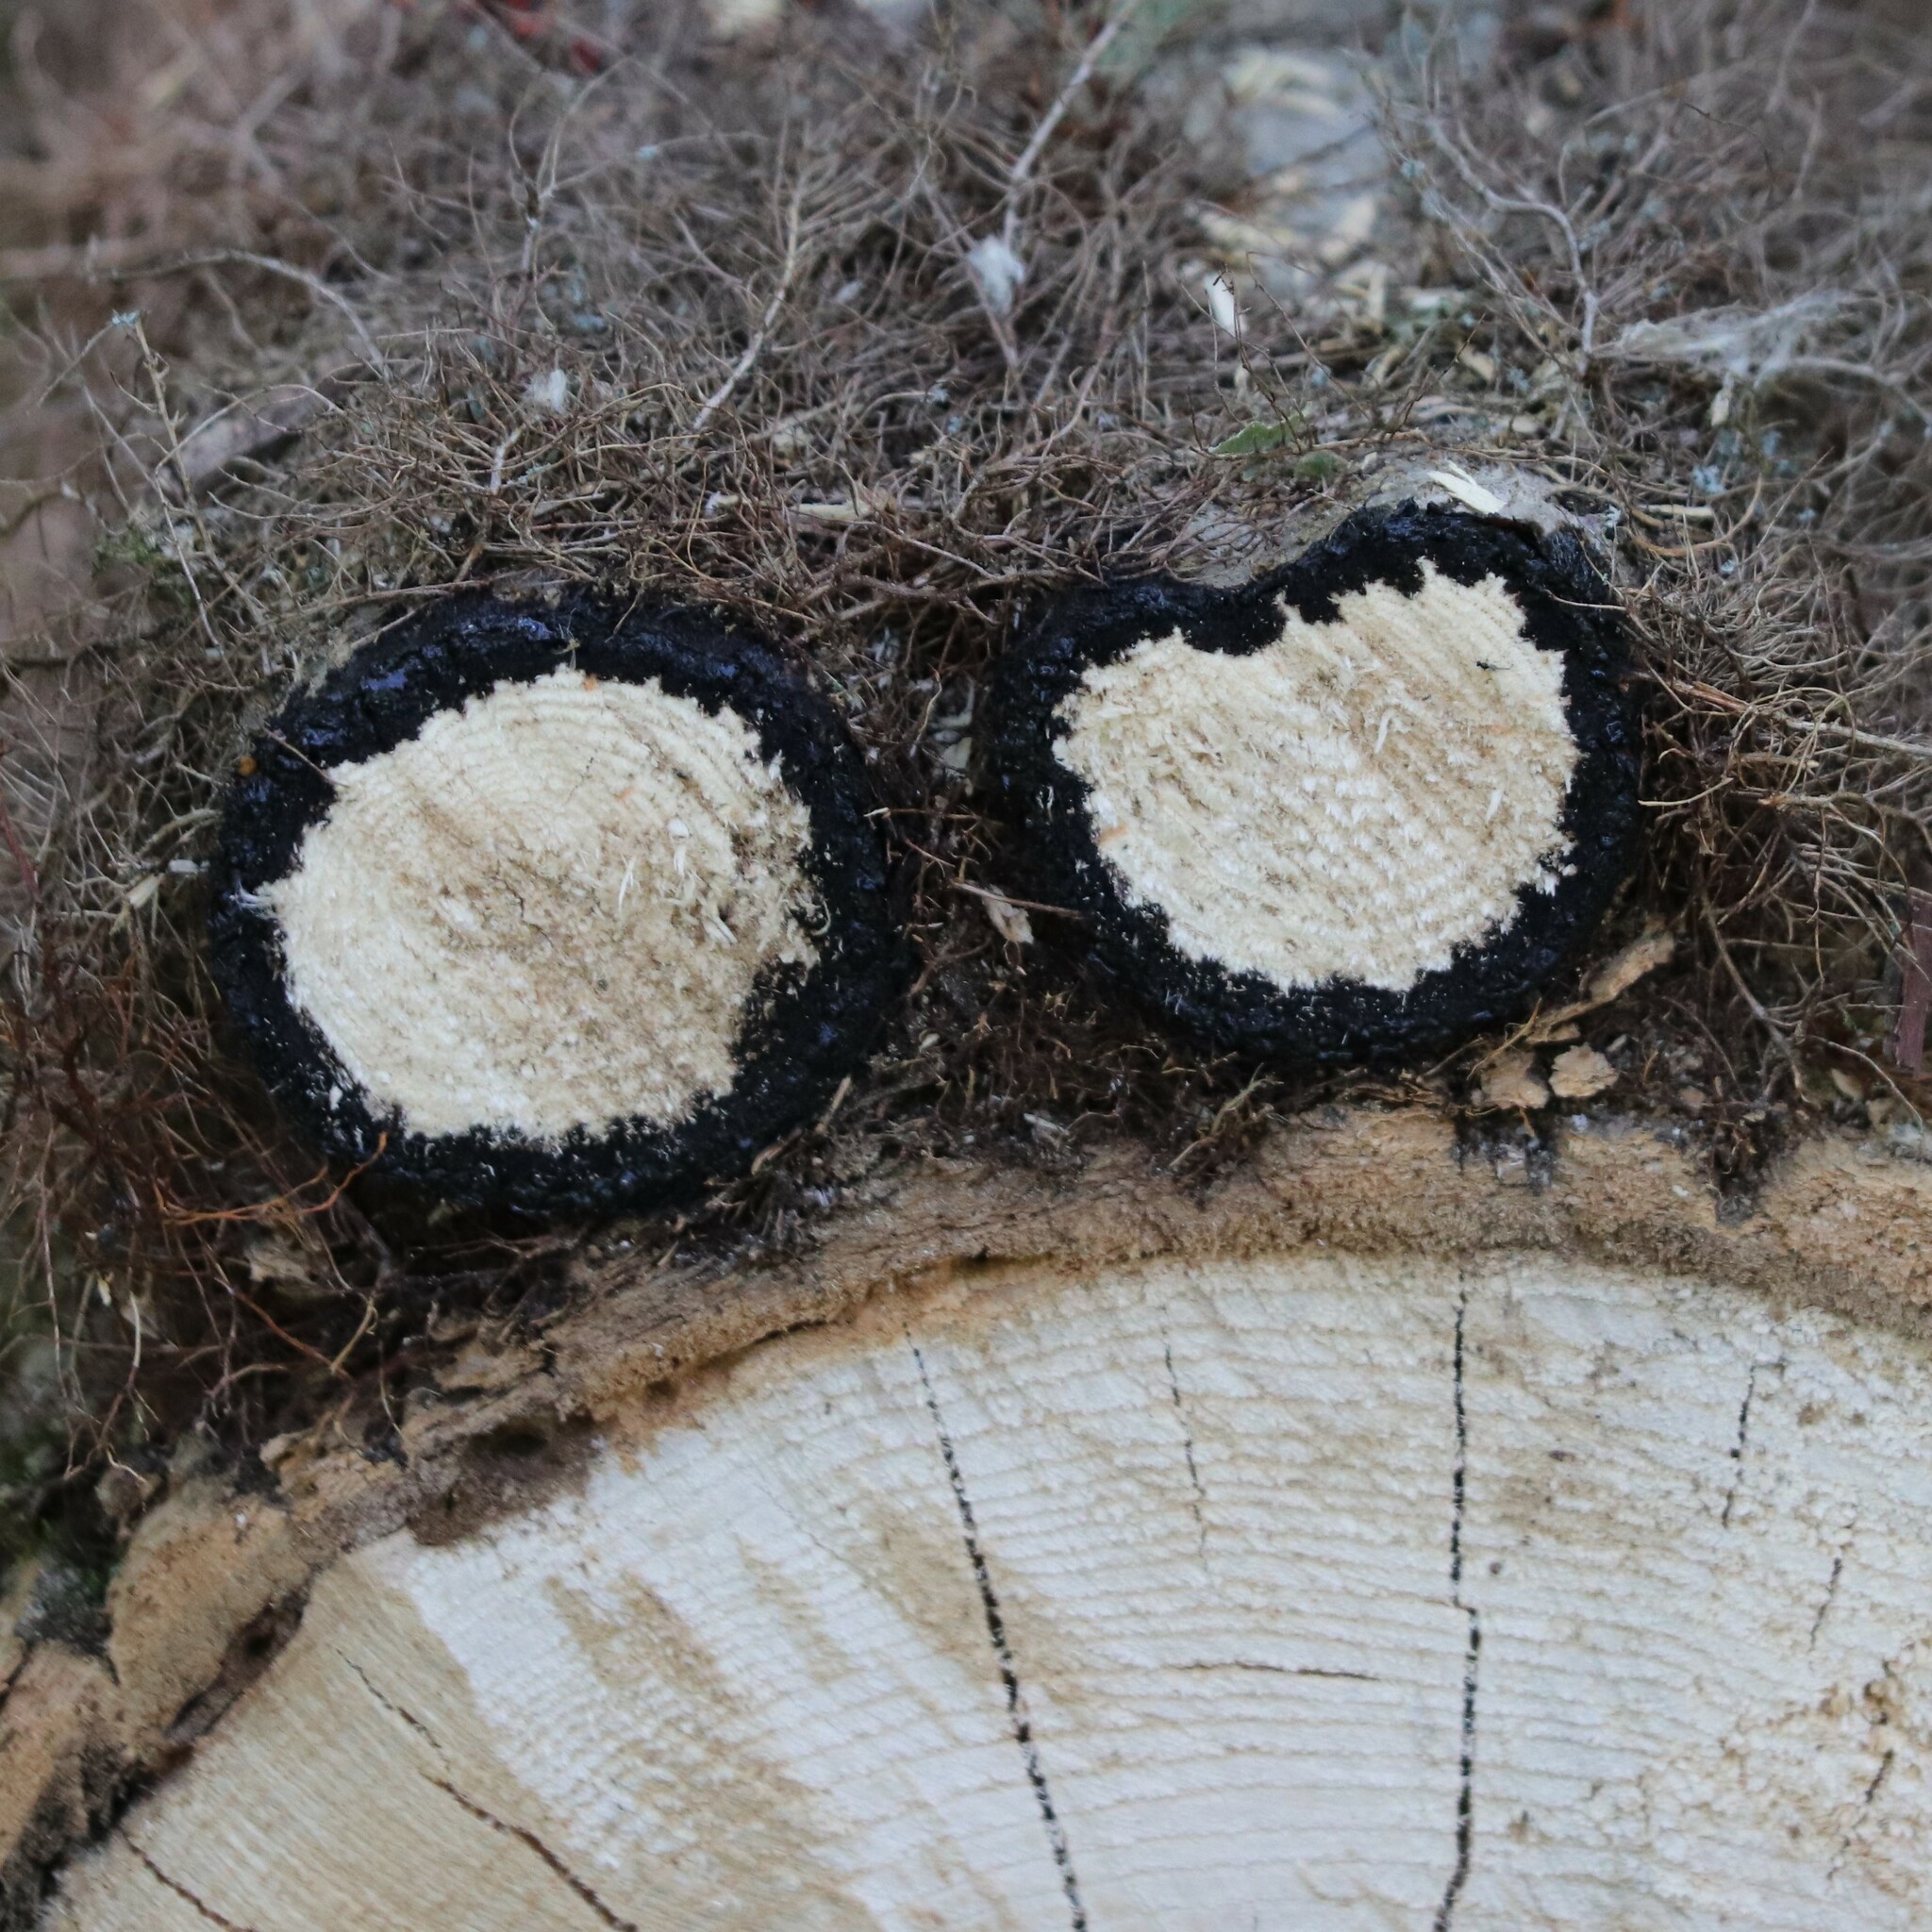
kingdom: Plantae
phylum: Tracheophyta
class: Magnoliopsida
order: Sapindales
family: Anacardiaceae
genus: Toxicodendron
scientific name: Toxicodendron radicans
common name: Poison ivy
